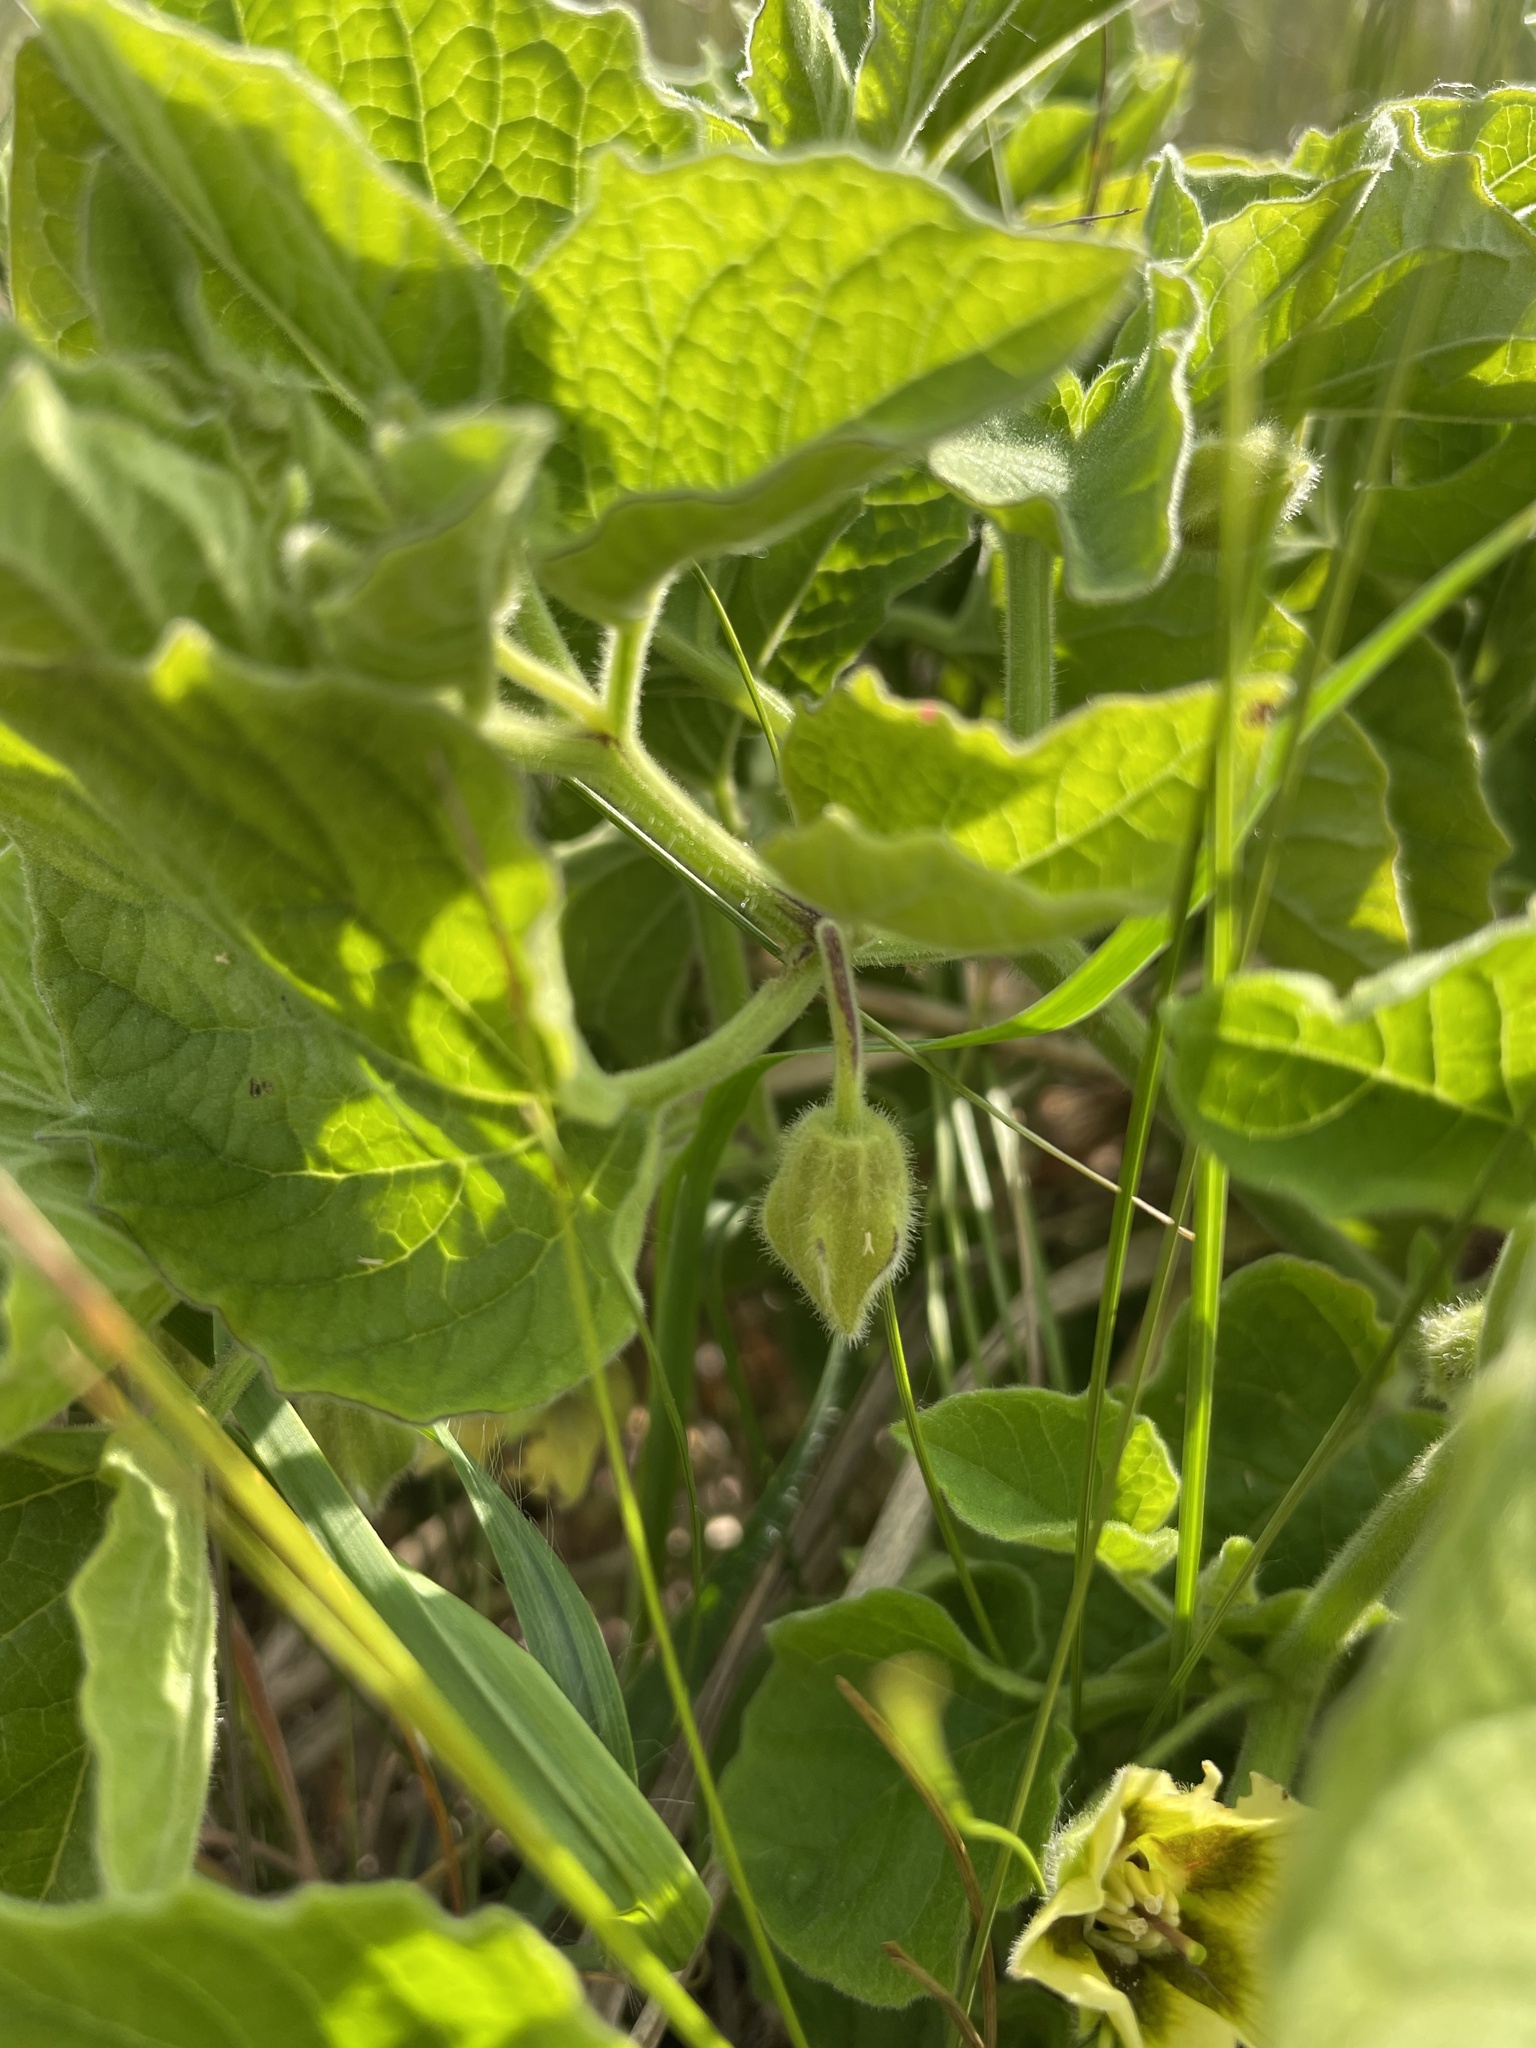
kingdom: Plantae
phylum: Tracheophyta
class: Magnoliopsida
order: Solanales
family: Solanaceae
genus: Physalis
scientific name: Physalis heterophylla
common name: Clammy ground-cherry
